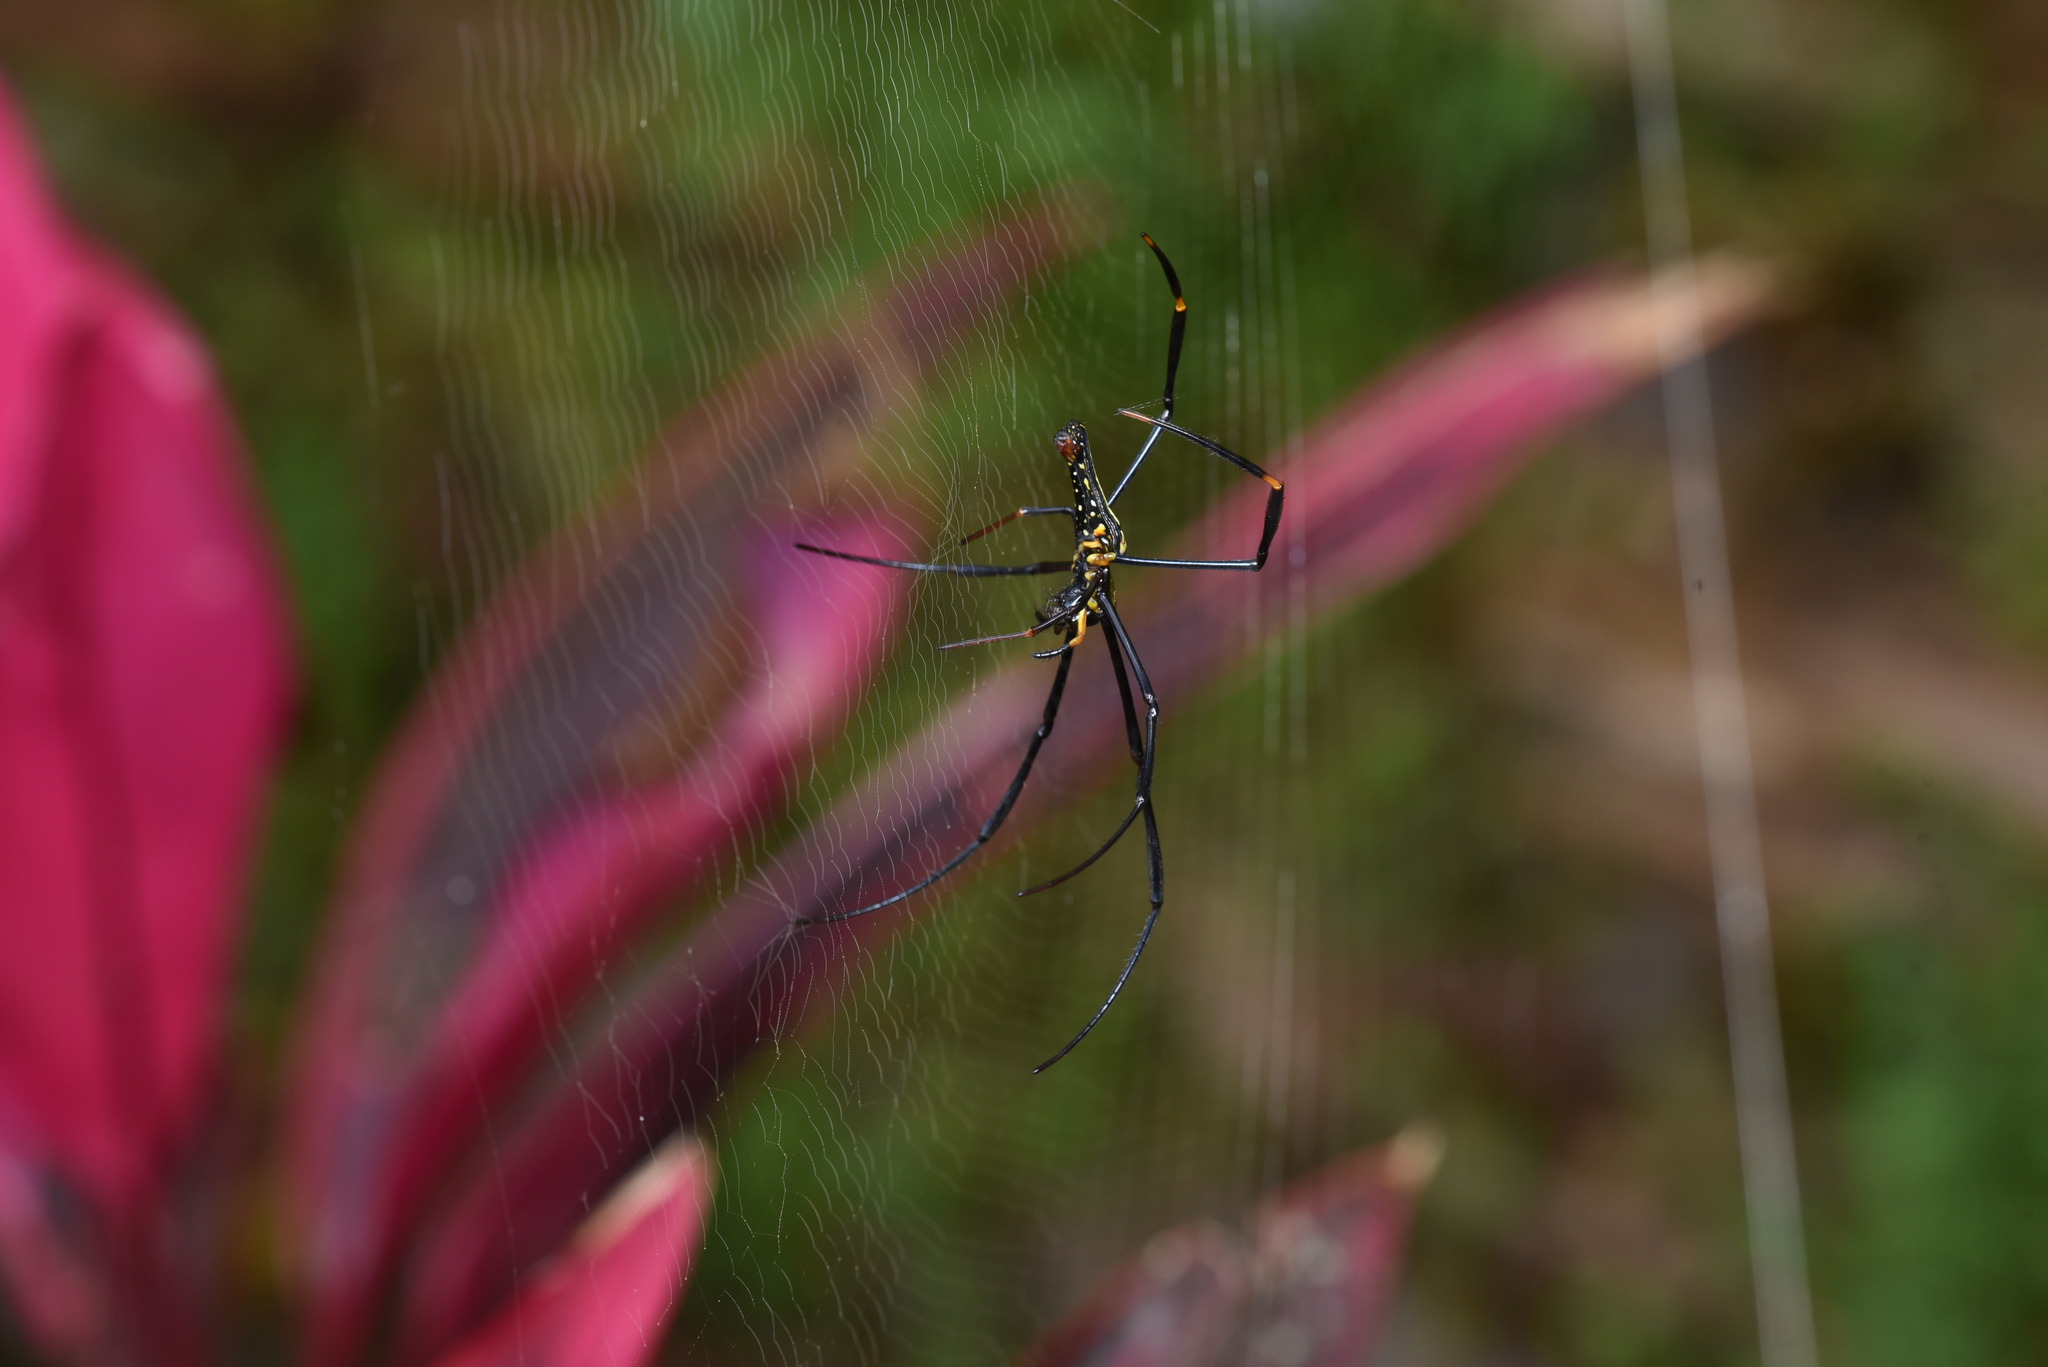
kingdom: Animalia
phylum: Arthropoda
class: Arachnida
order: Araneae
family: Araneidae
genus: Nephila
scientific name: Nephila pilipes
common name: Giant golden orb weaver
